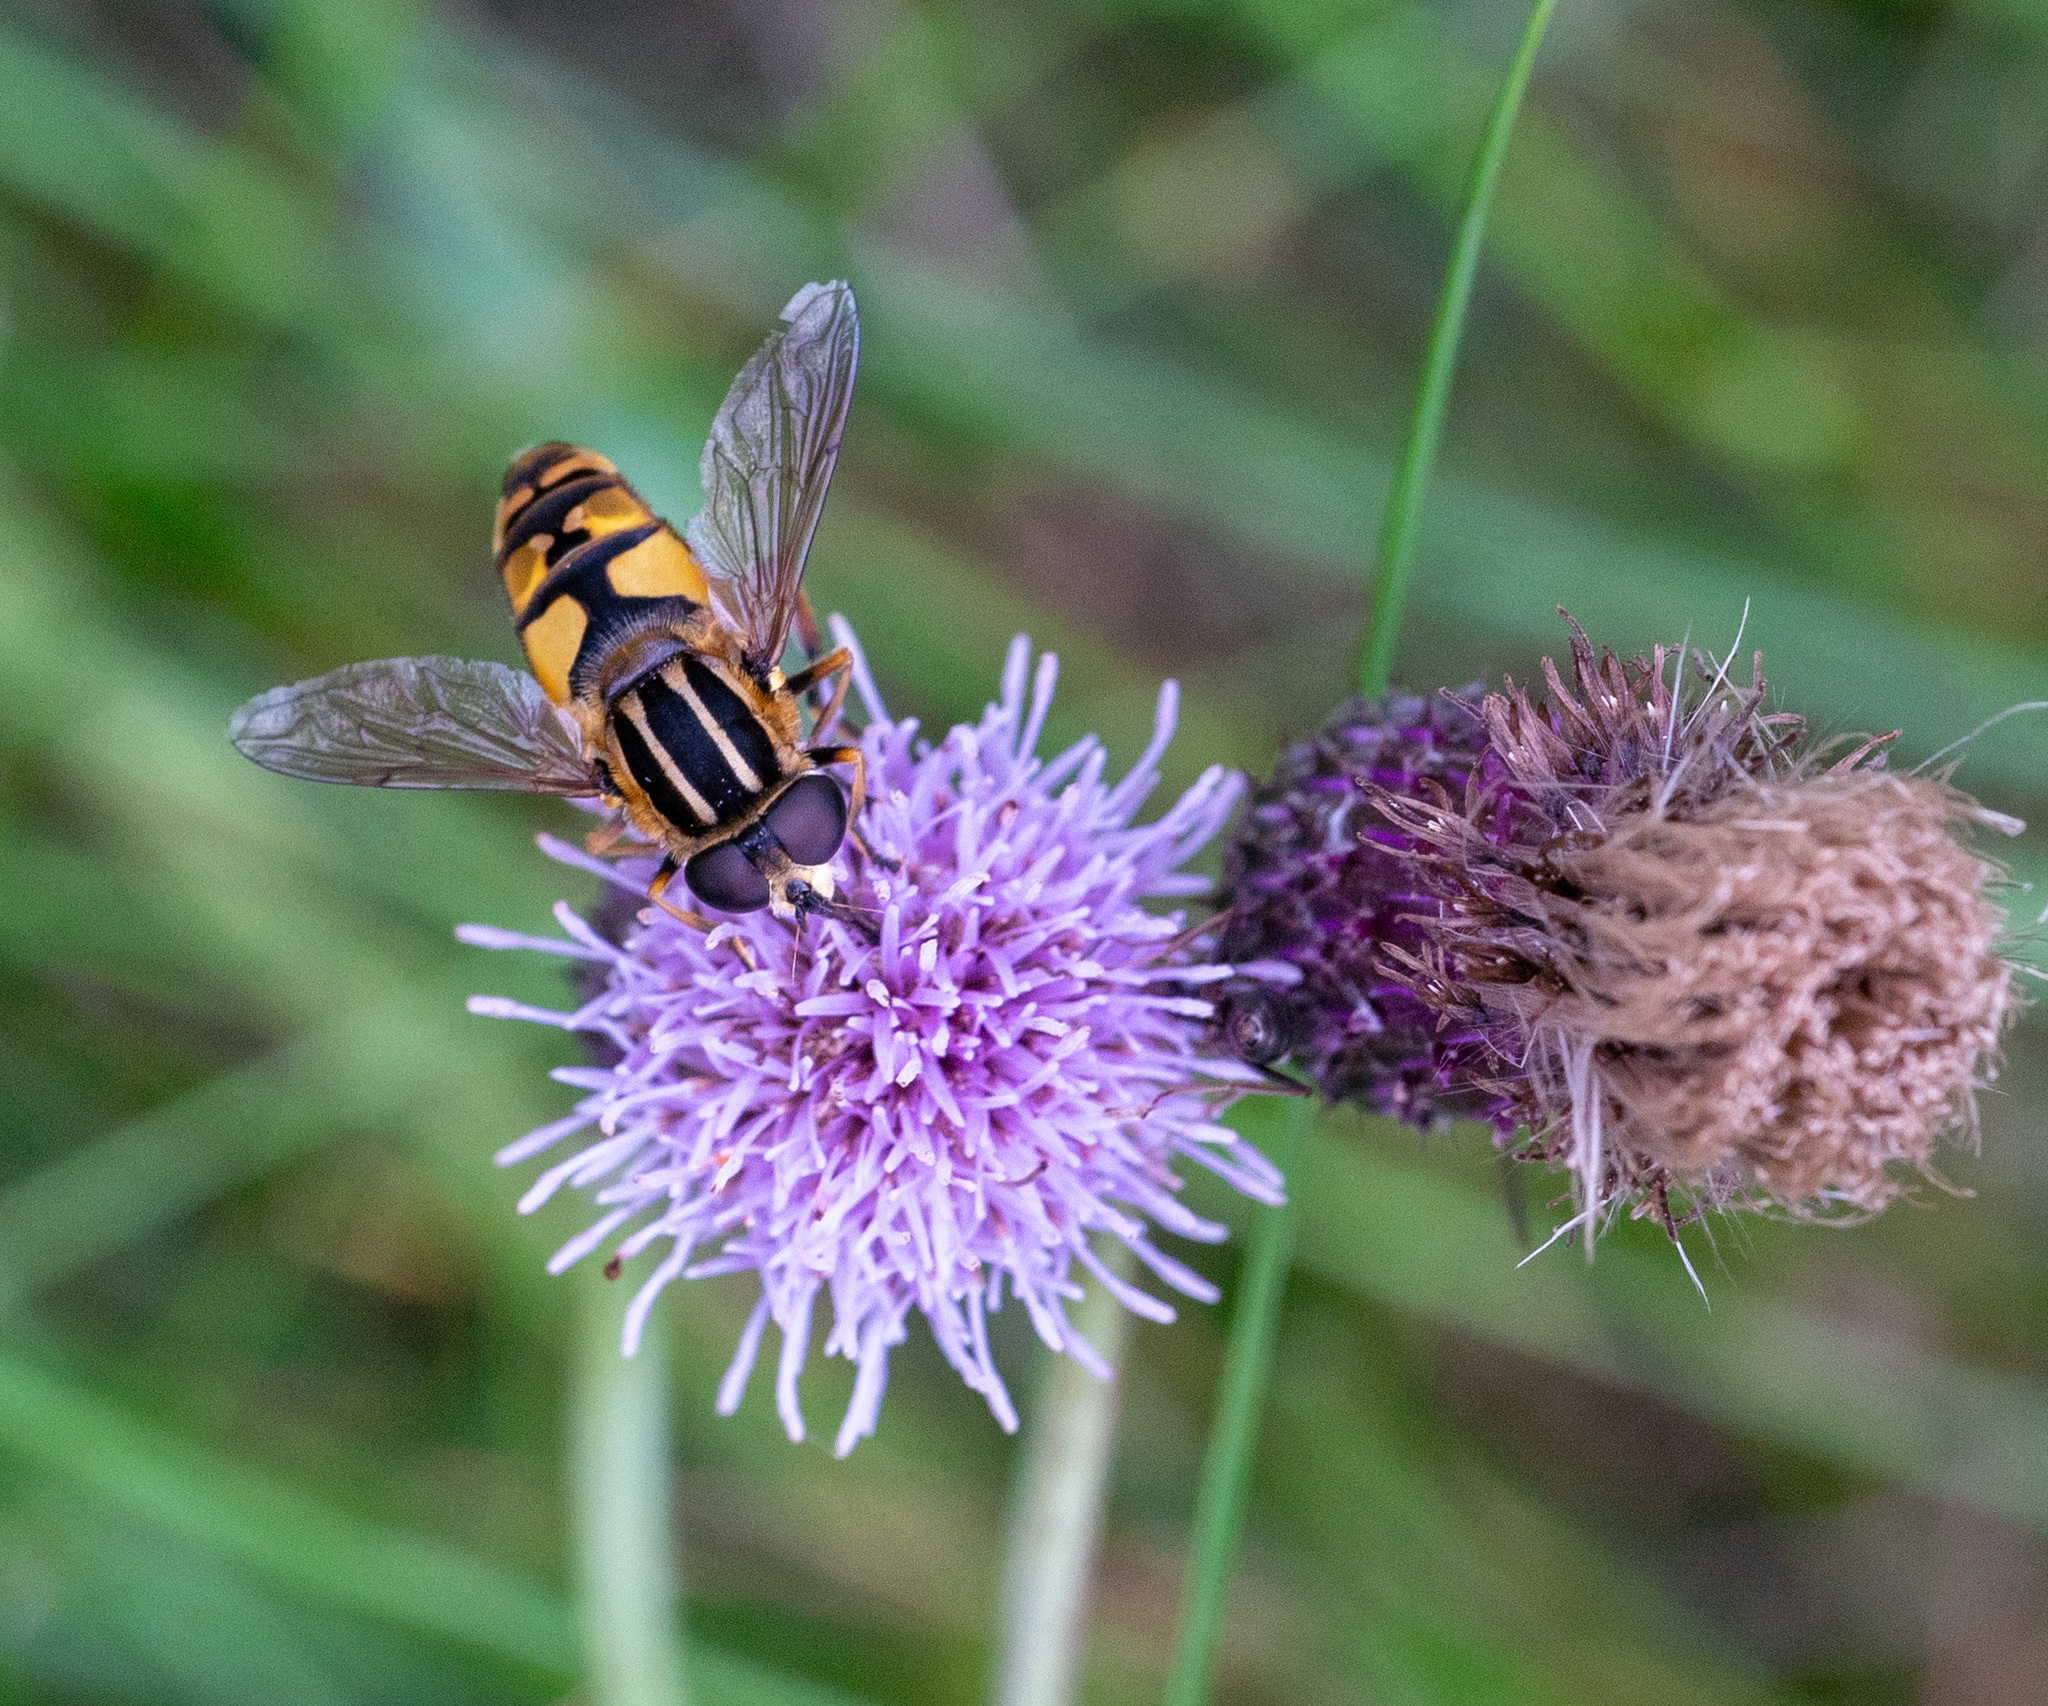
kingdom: Animalia
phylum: Arthropoda
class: Insecta
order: Diptera
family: Syrphidae
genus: Helophilus
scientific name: Helophilus pendulus
